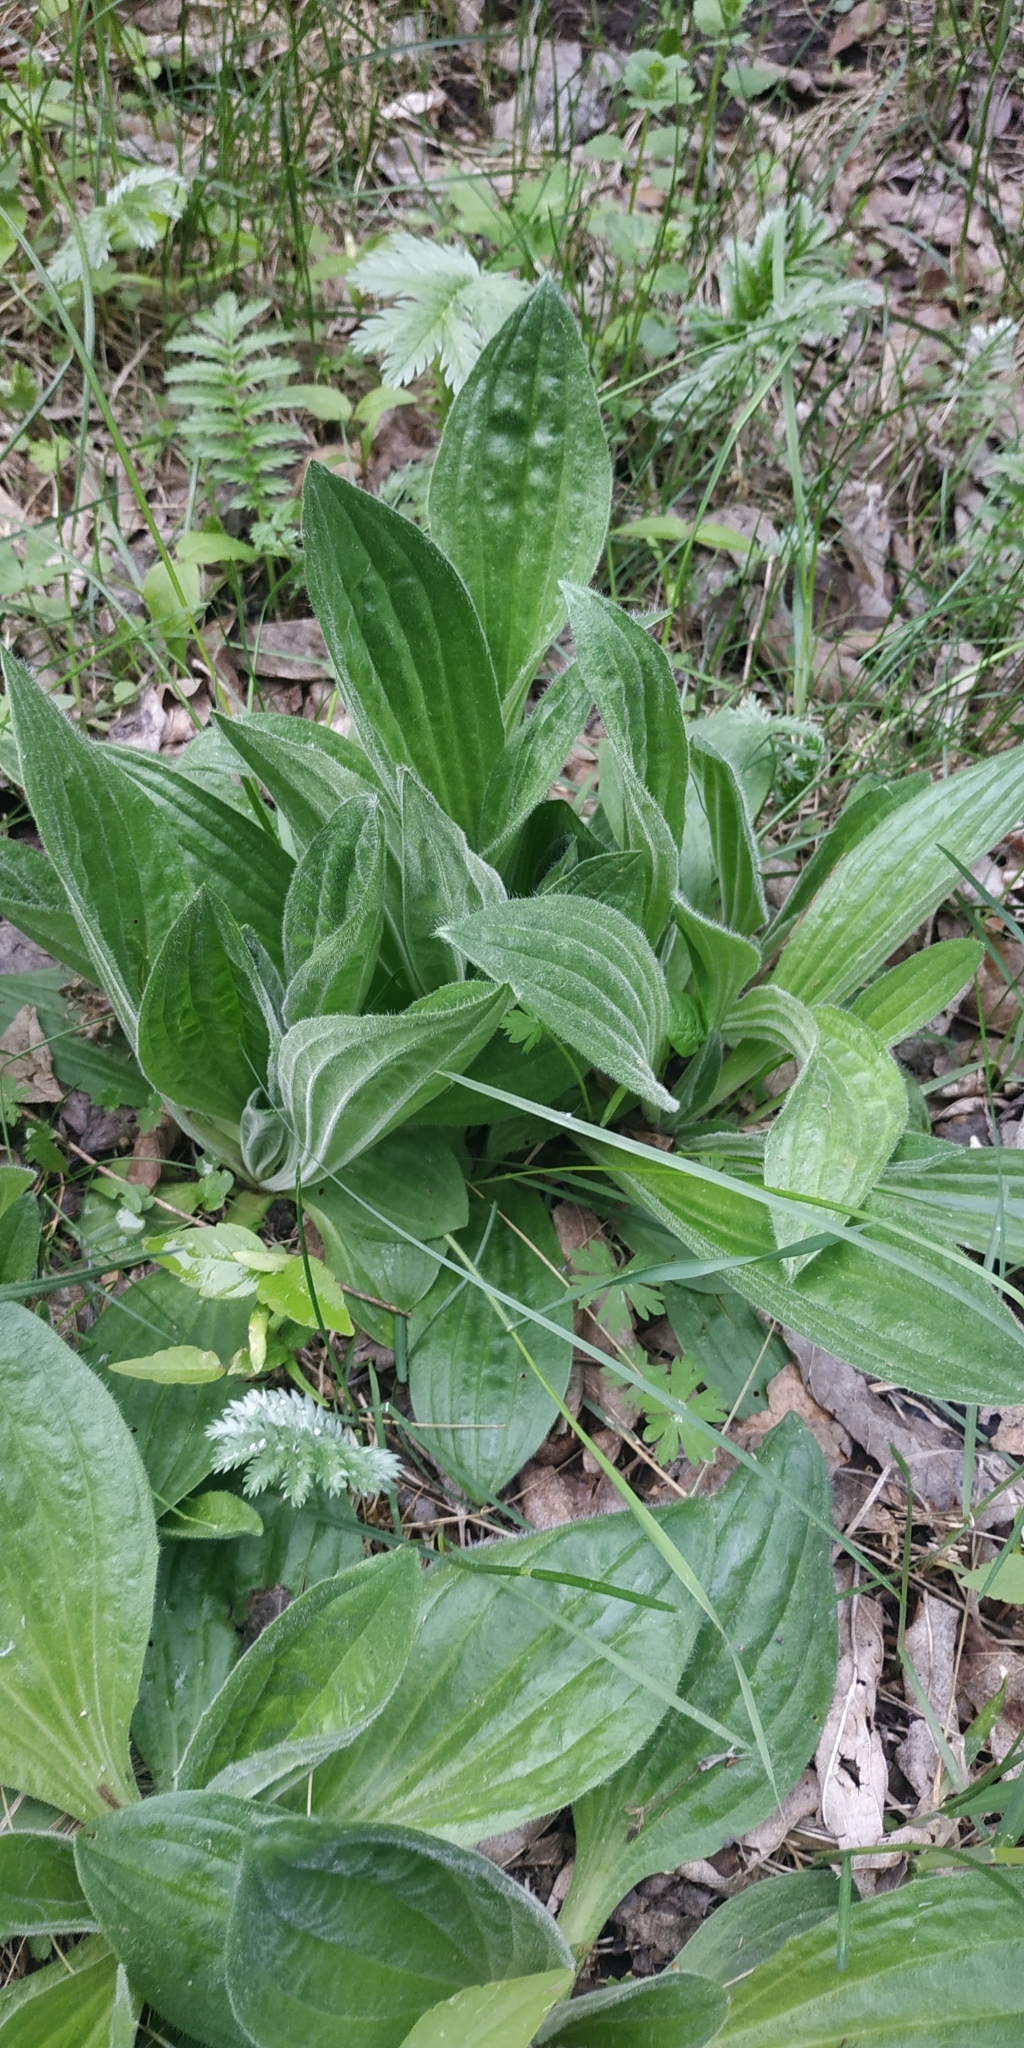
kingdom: Plantae
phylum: Tracheophyta
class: Magnoliopsida
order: Lamiales
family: Plantaginaceae
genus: Plantago
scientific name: Plantago media
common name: Hoary plantain
